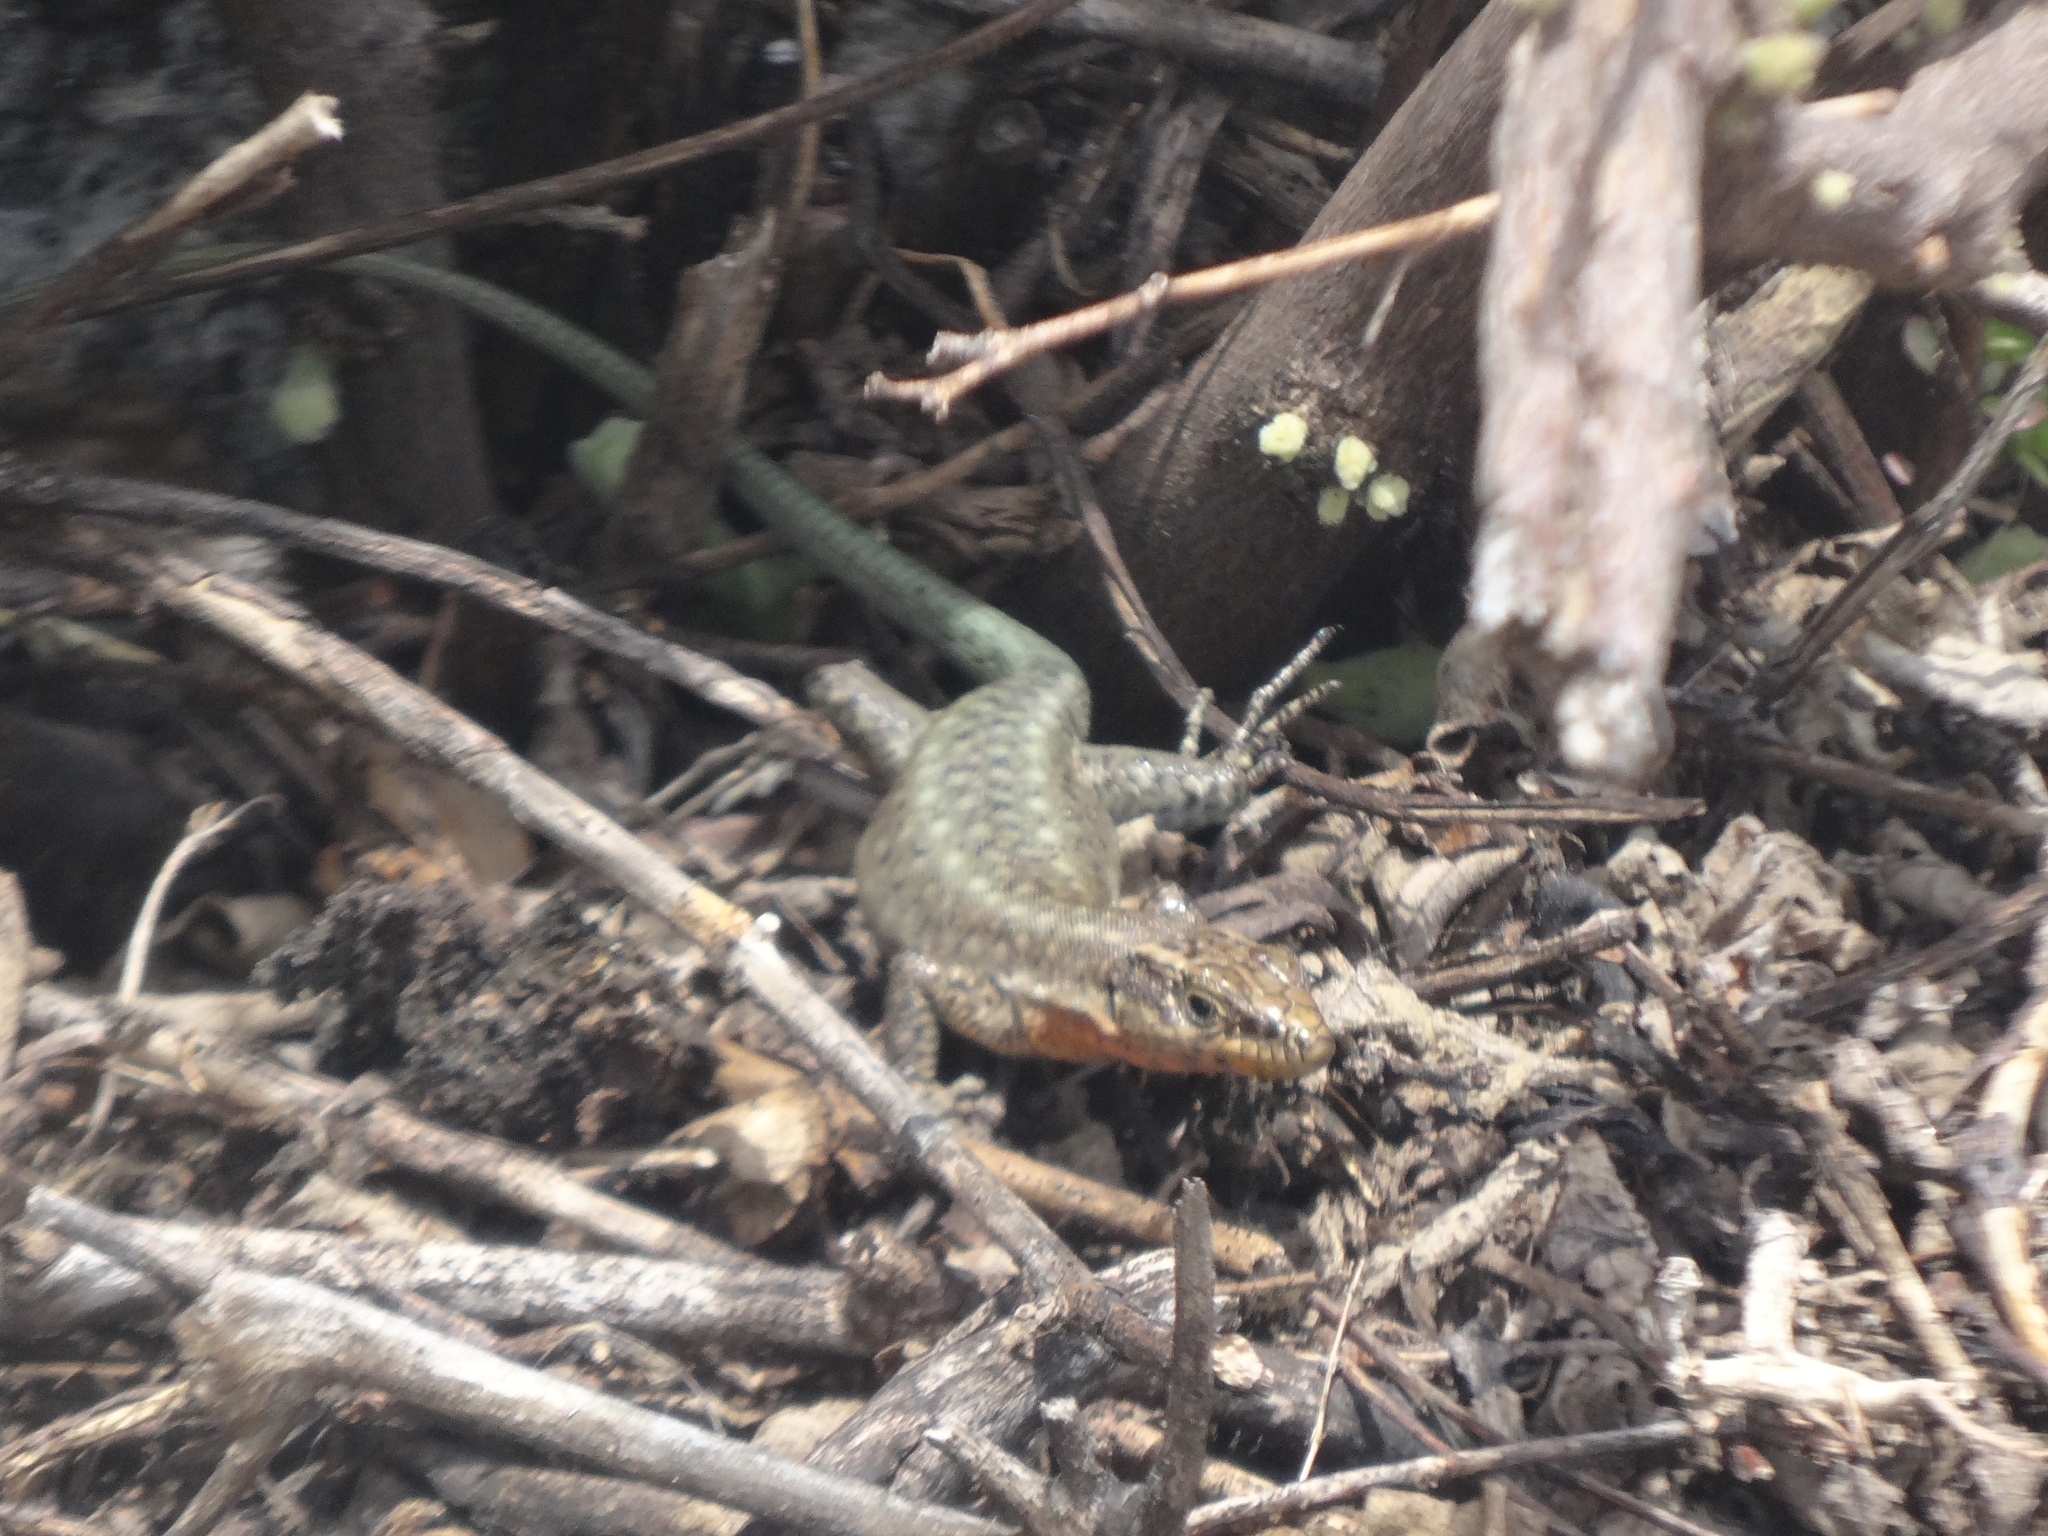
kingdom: Animalia
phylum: Chordata
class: Squamata
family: Lacertidae
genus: Anatololacerta
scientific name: Anatololacerta ibrahimi
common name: Baran’s lizard
